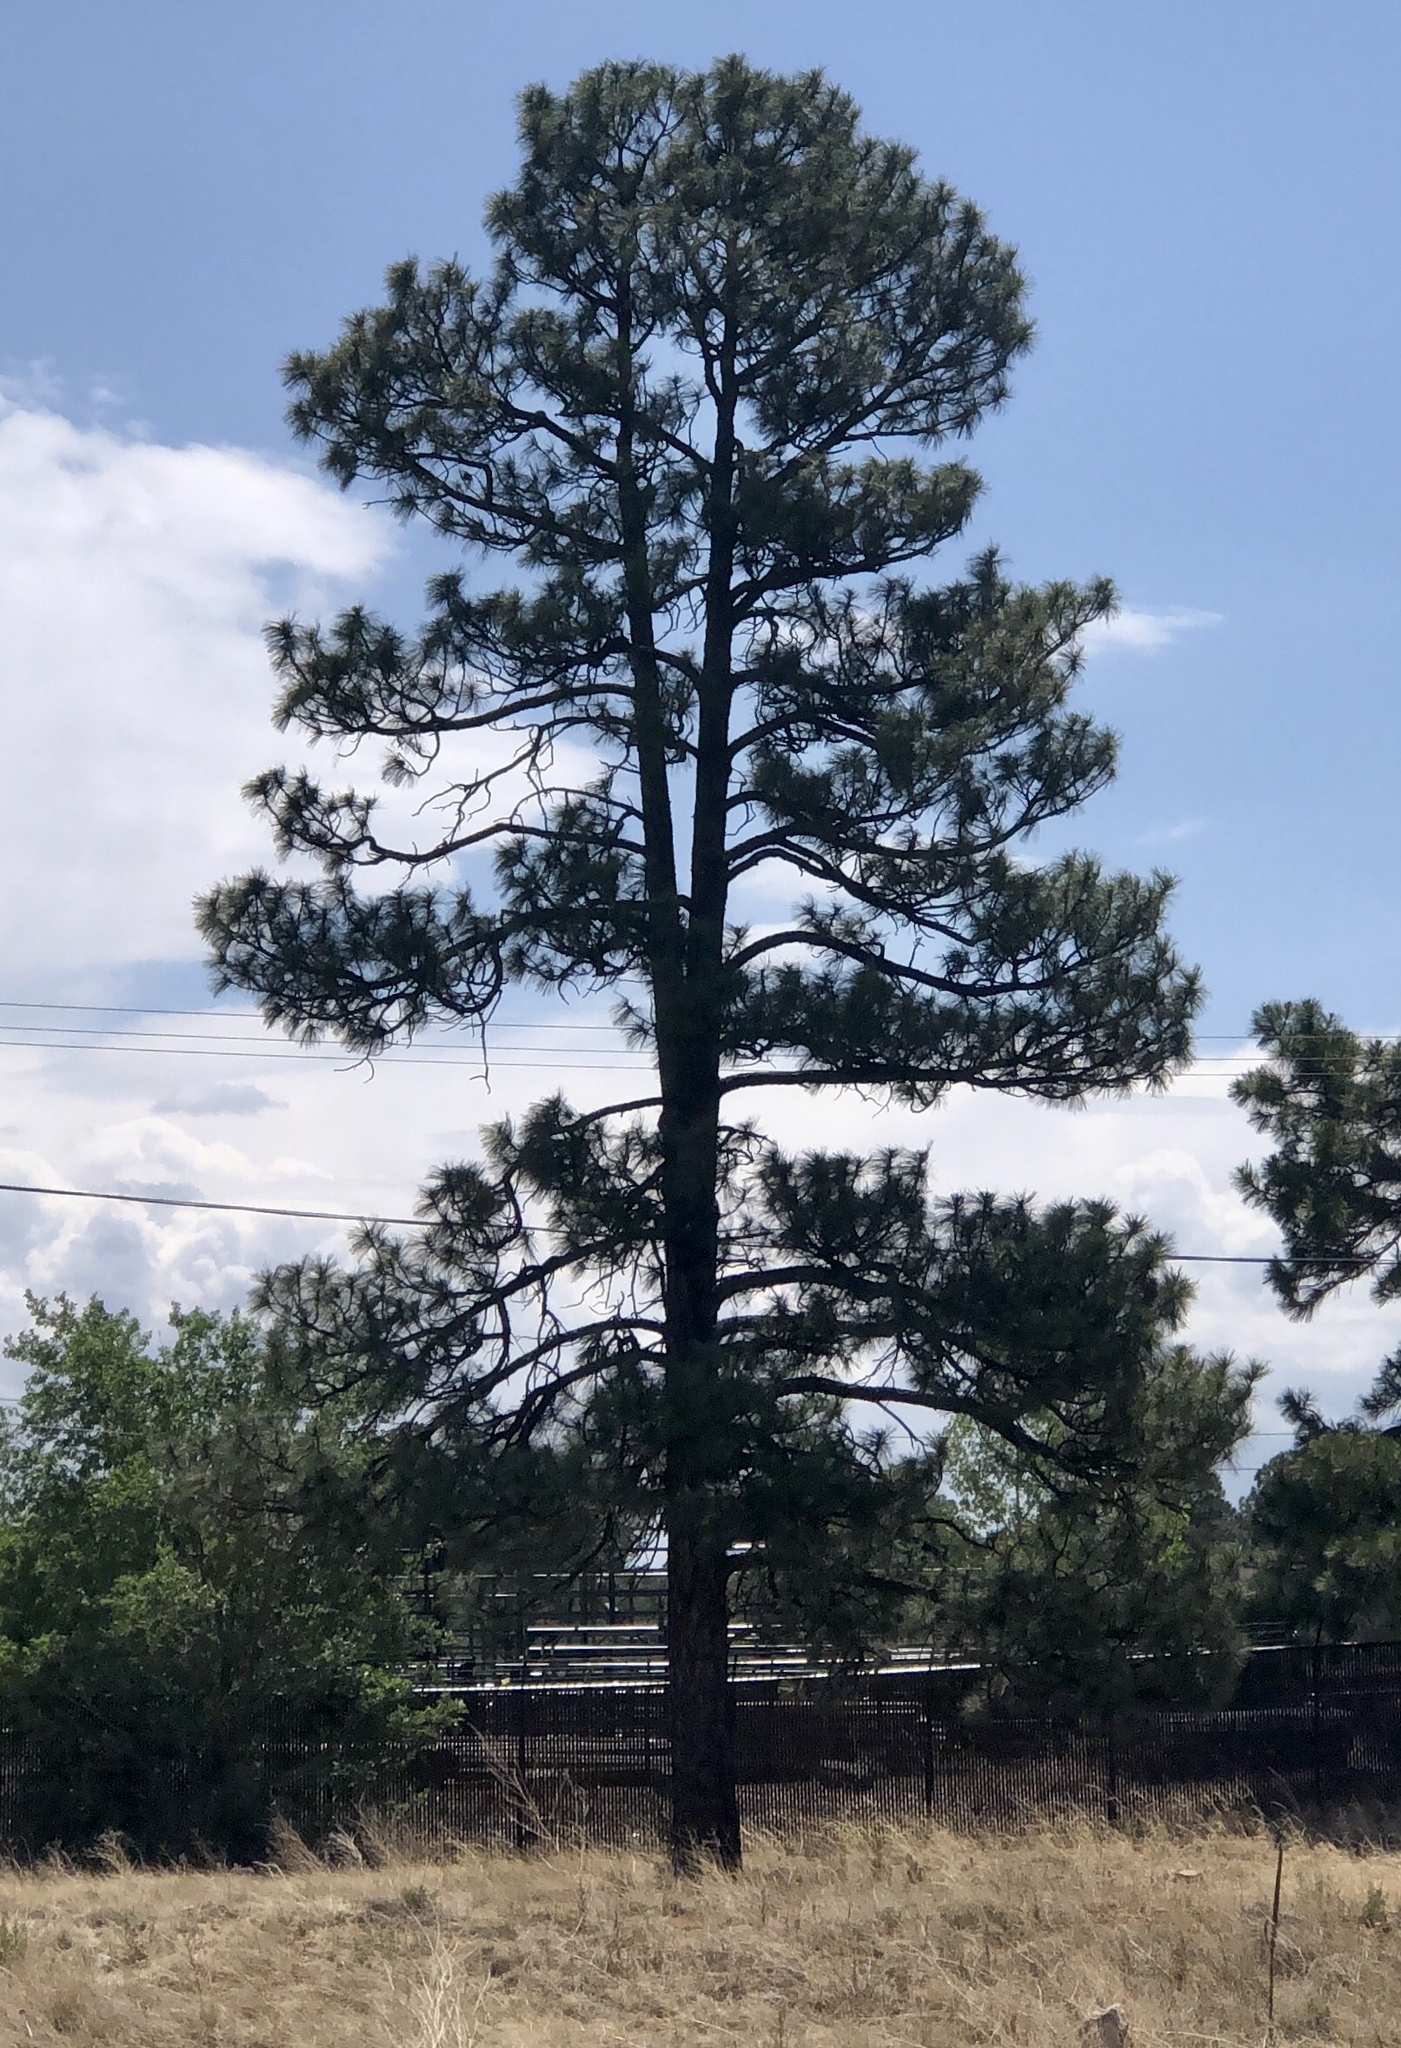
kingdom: Plantae
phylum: Tracheophyta
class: Pinopsida
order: Pinales
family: Pinaceae
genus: Pinus
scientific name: Pinus ponderosa
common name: Western yellow-pine
